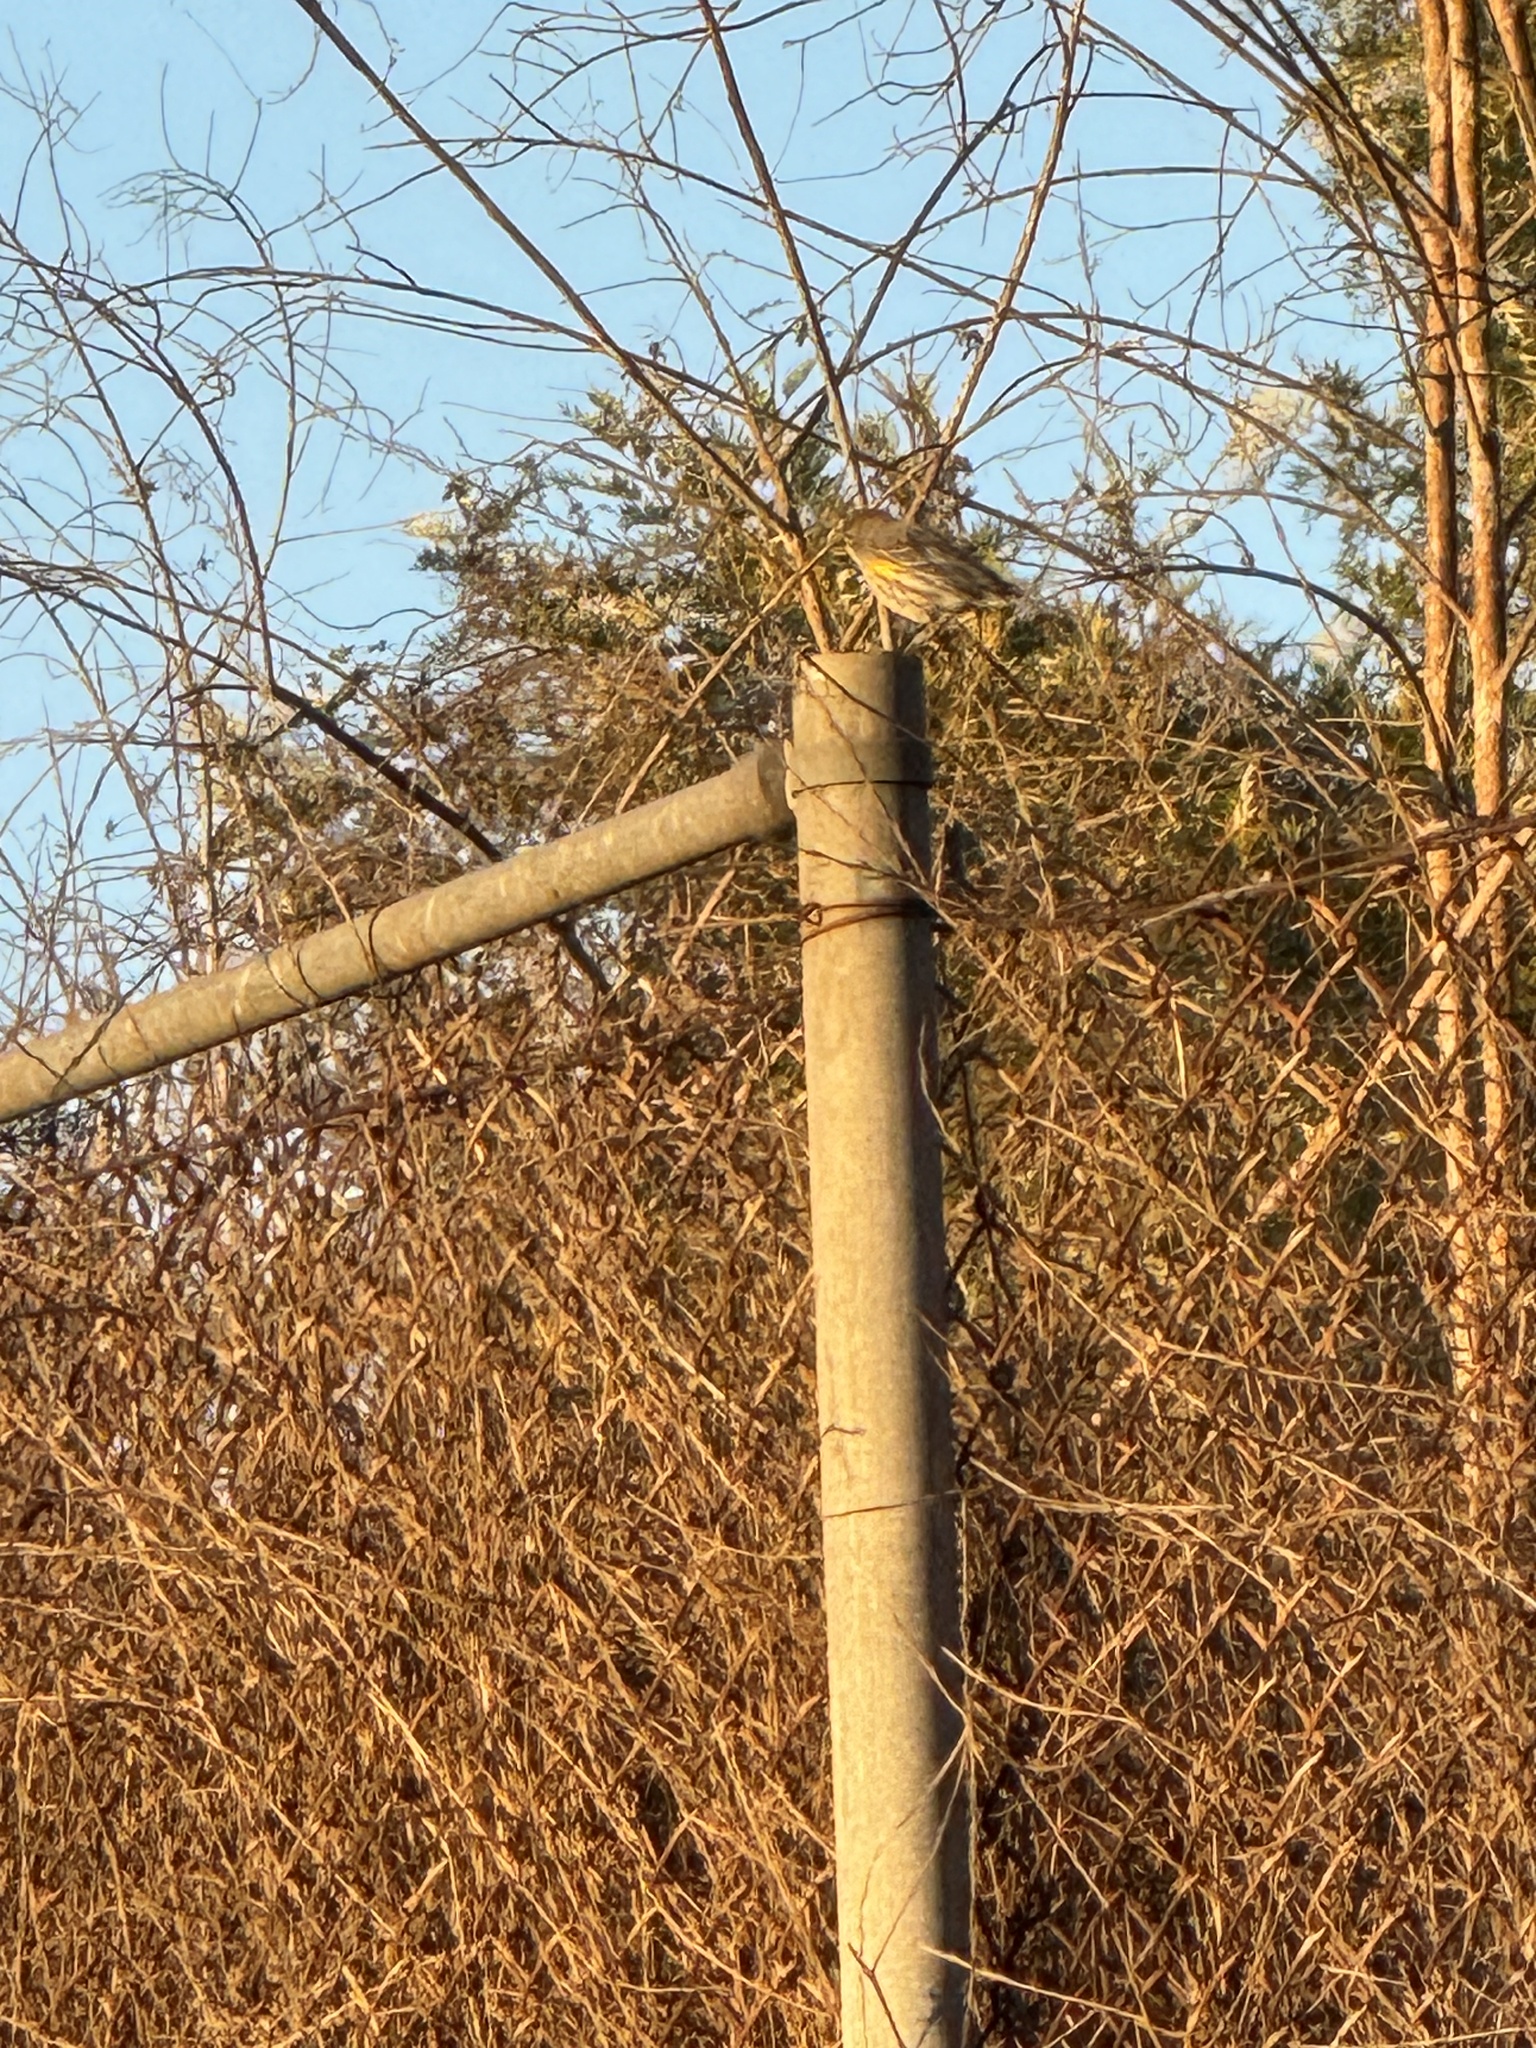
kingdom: Animalia
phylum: Chordata
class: Aves
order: Passeriformes
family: Parulidae
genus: Setophaga
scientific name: Setophaga coronata
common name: Myrtle warbler
